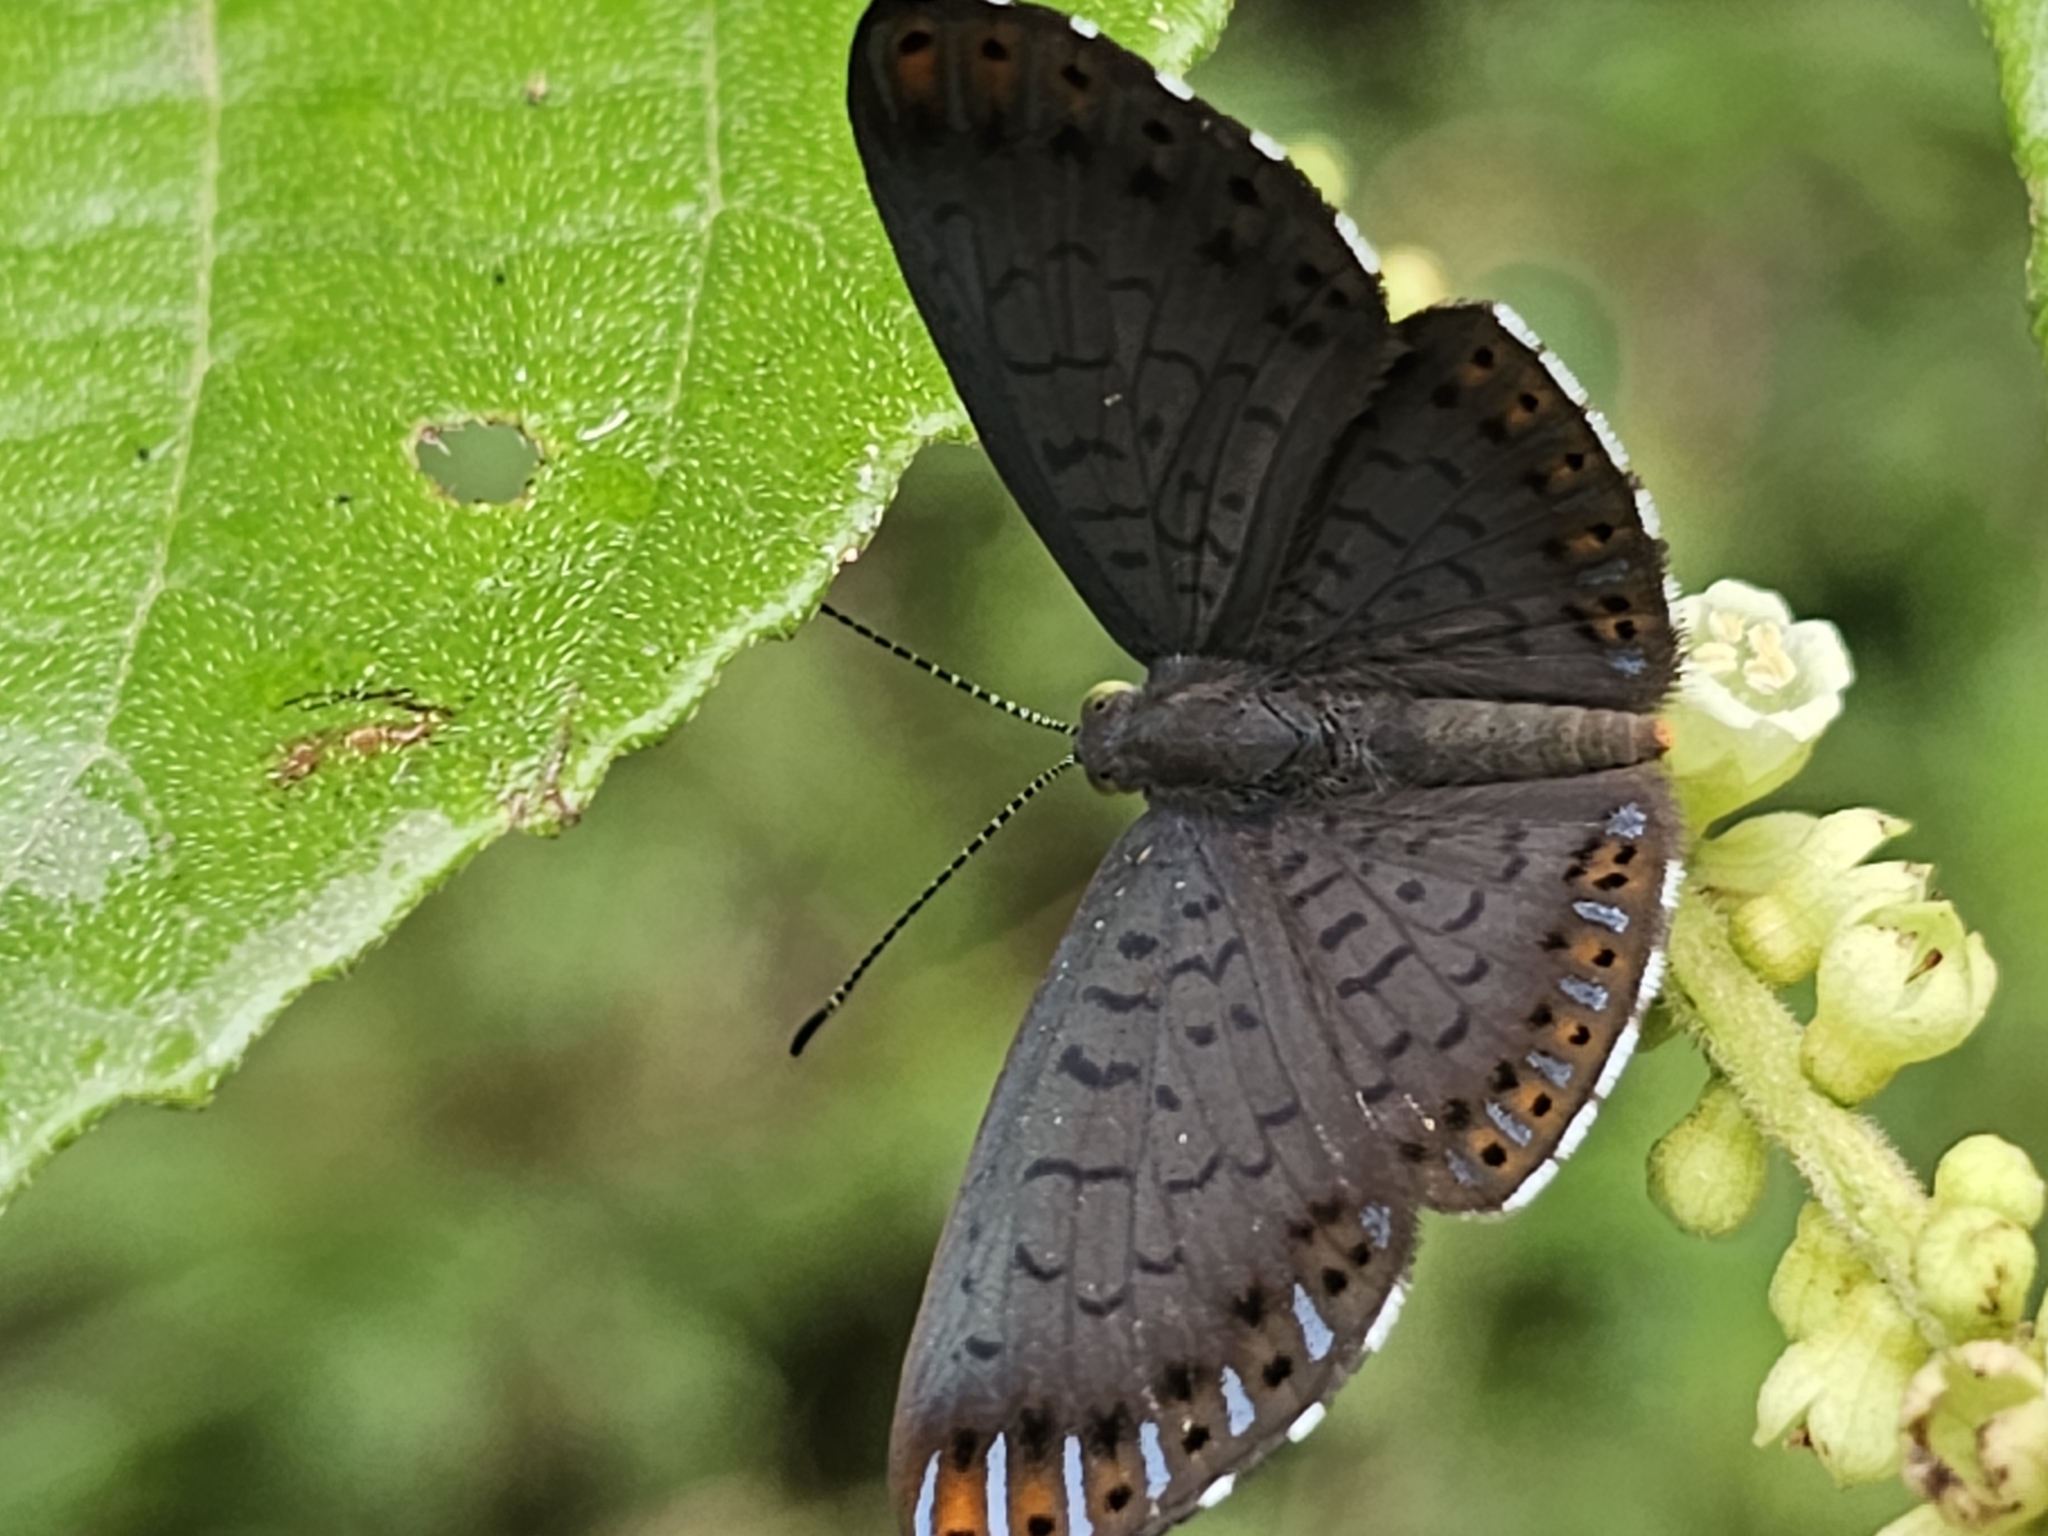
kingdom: Animalia
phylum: Arthropoda
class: Insecta
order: Lepidoptera
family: Riodinidae
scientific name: Riodinidae
